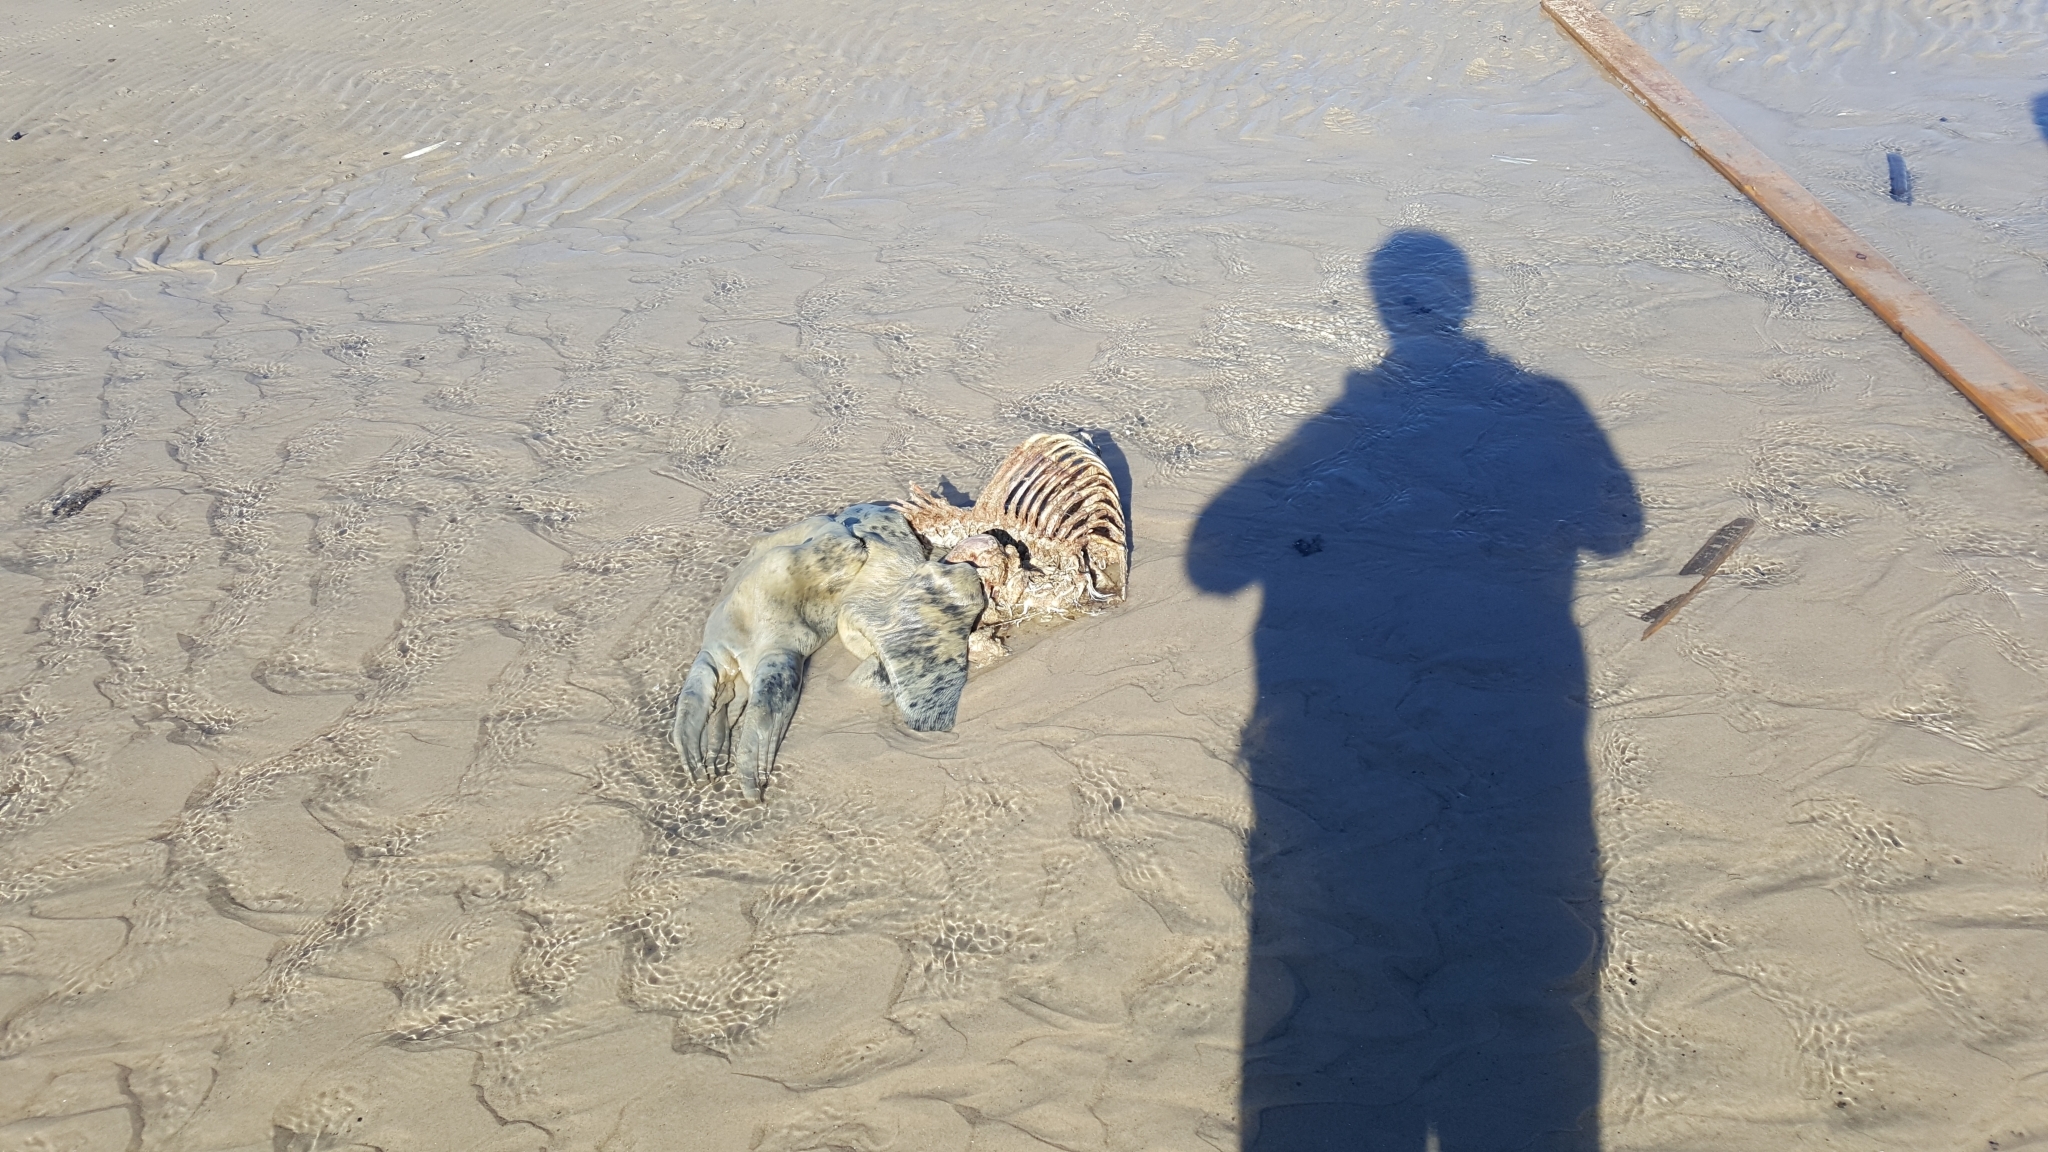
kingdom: Animalia
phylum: Chordata
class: Mammalia
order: Carnivora
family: Phocidae
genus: Halichoerus
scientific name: Halichoerus grypus
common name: Grey seal
